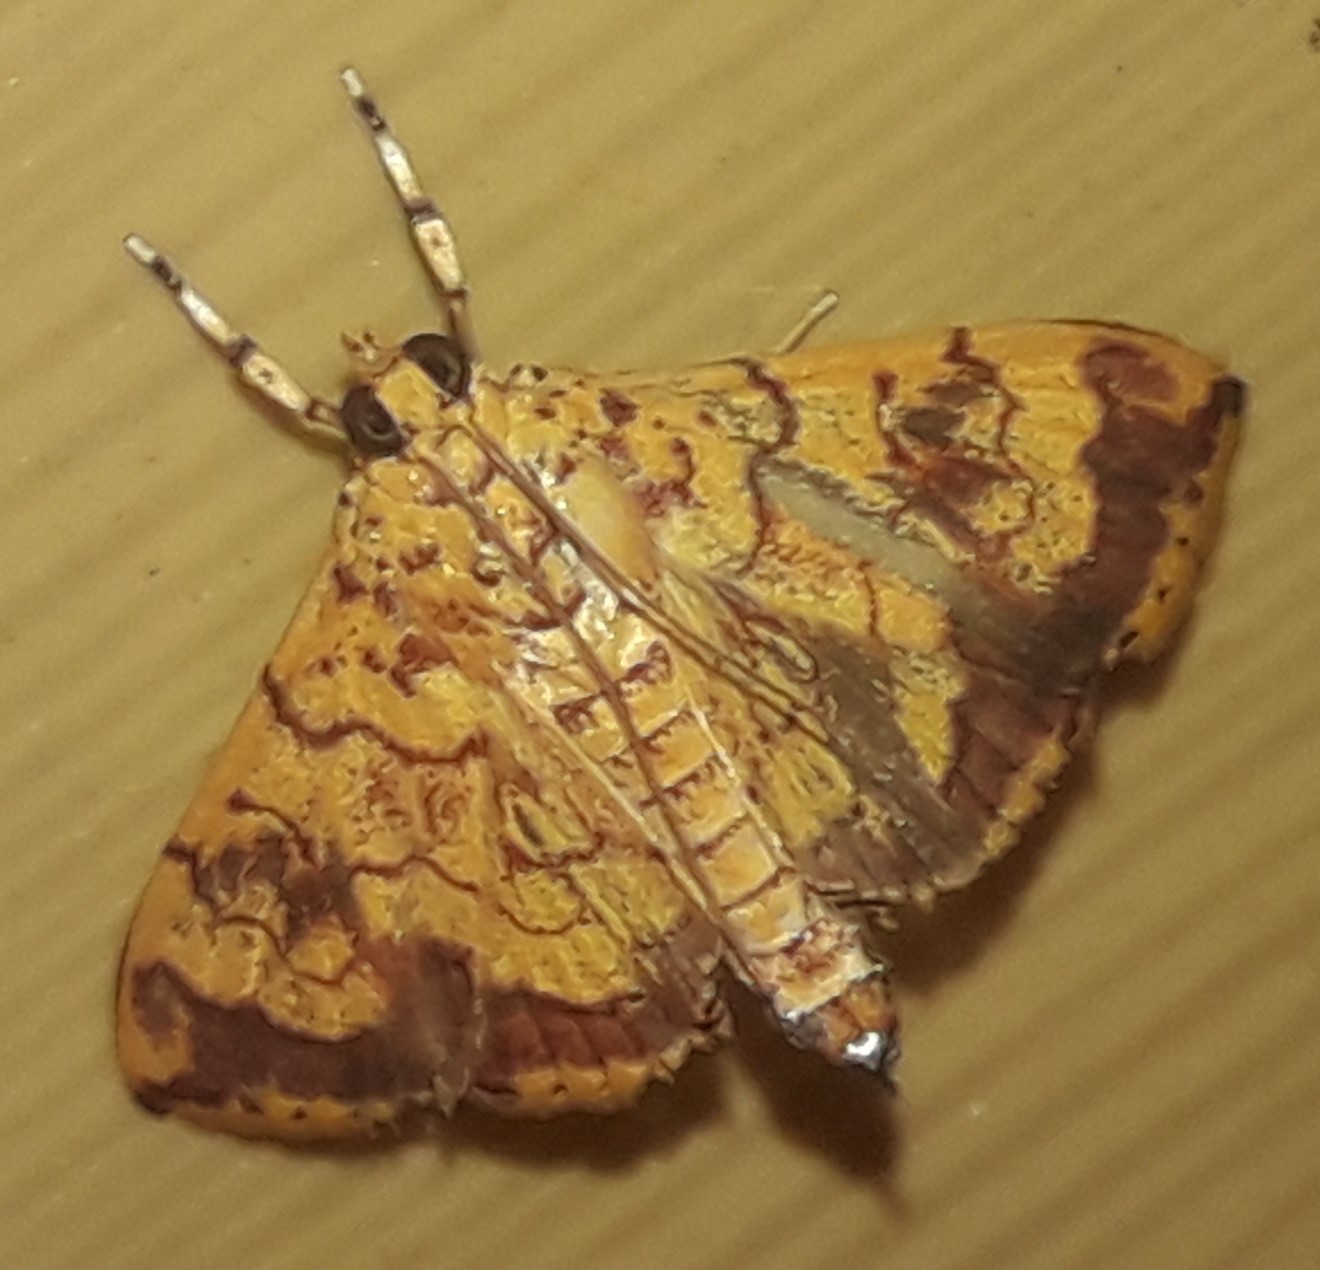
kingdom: Animalia
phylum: Arthropoda
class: Insecta
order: Lepidoptera
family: Crambidae
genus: Portentomorpha
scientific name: Portentomorpha xanthialis
